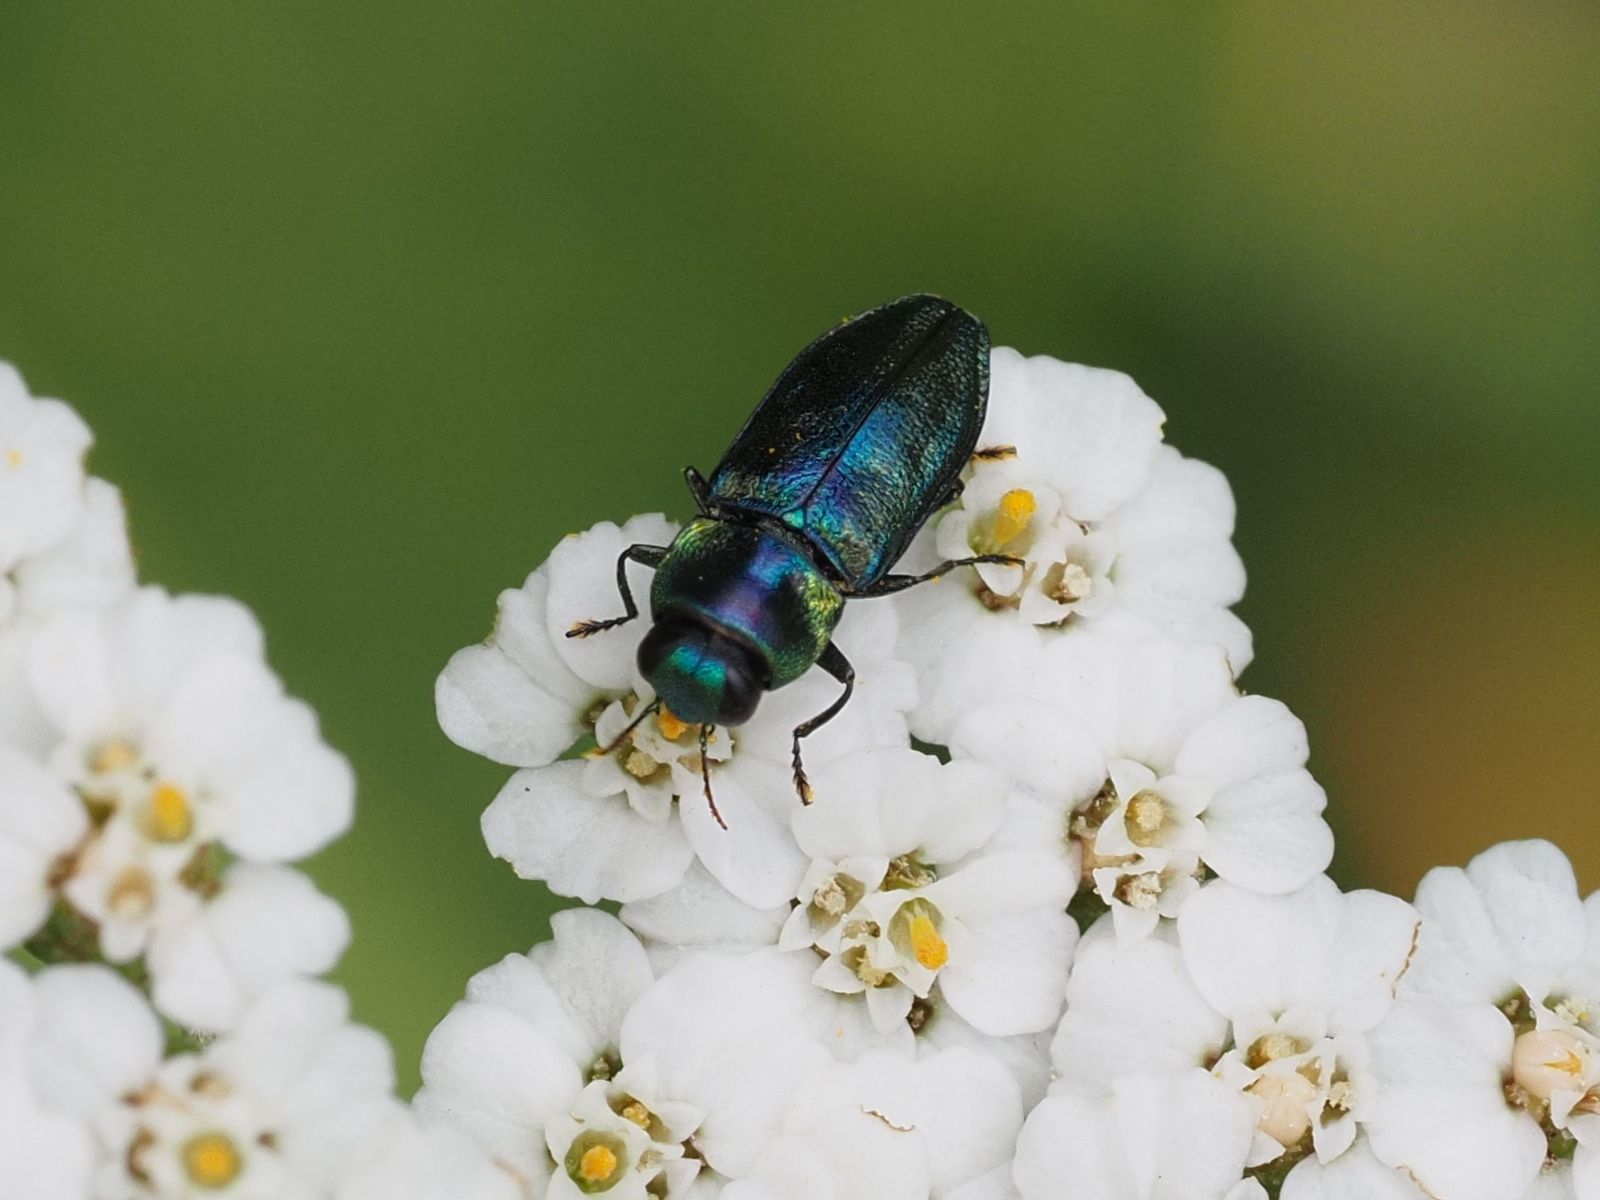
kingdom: Animalia
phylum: Arthropoda
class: Insecta
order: Coleoptera
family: Buprestidae
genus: Anthaxia
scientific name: Anthaxia podolica
